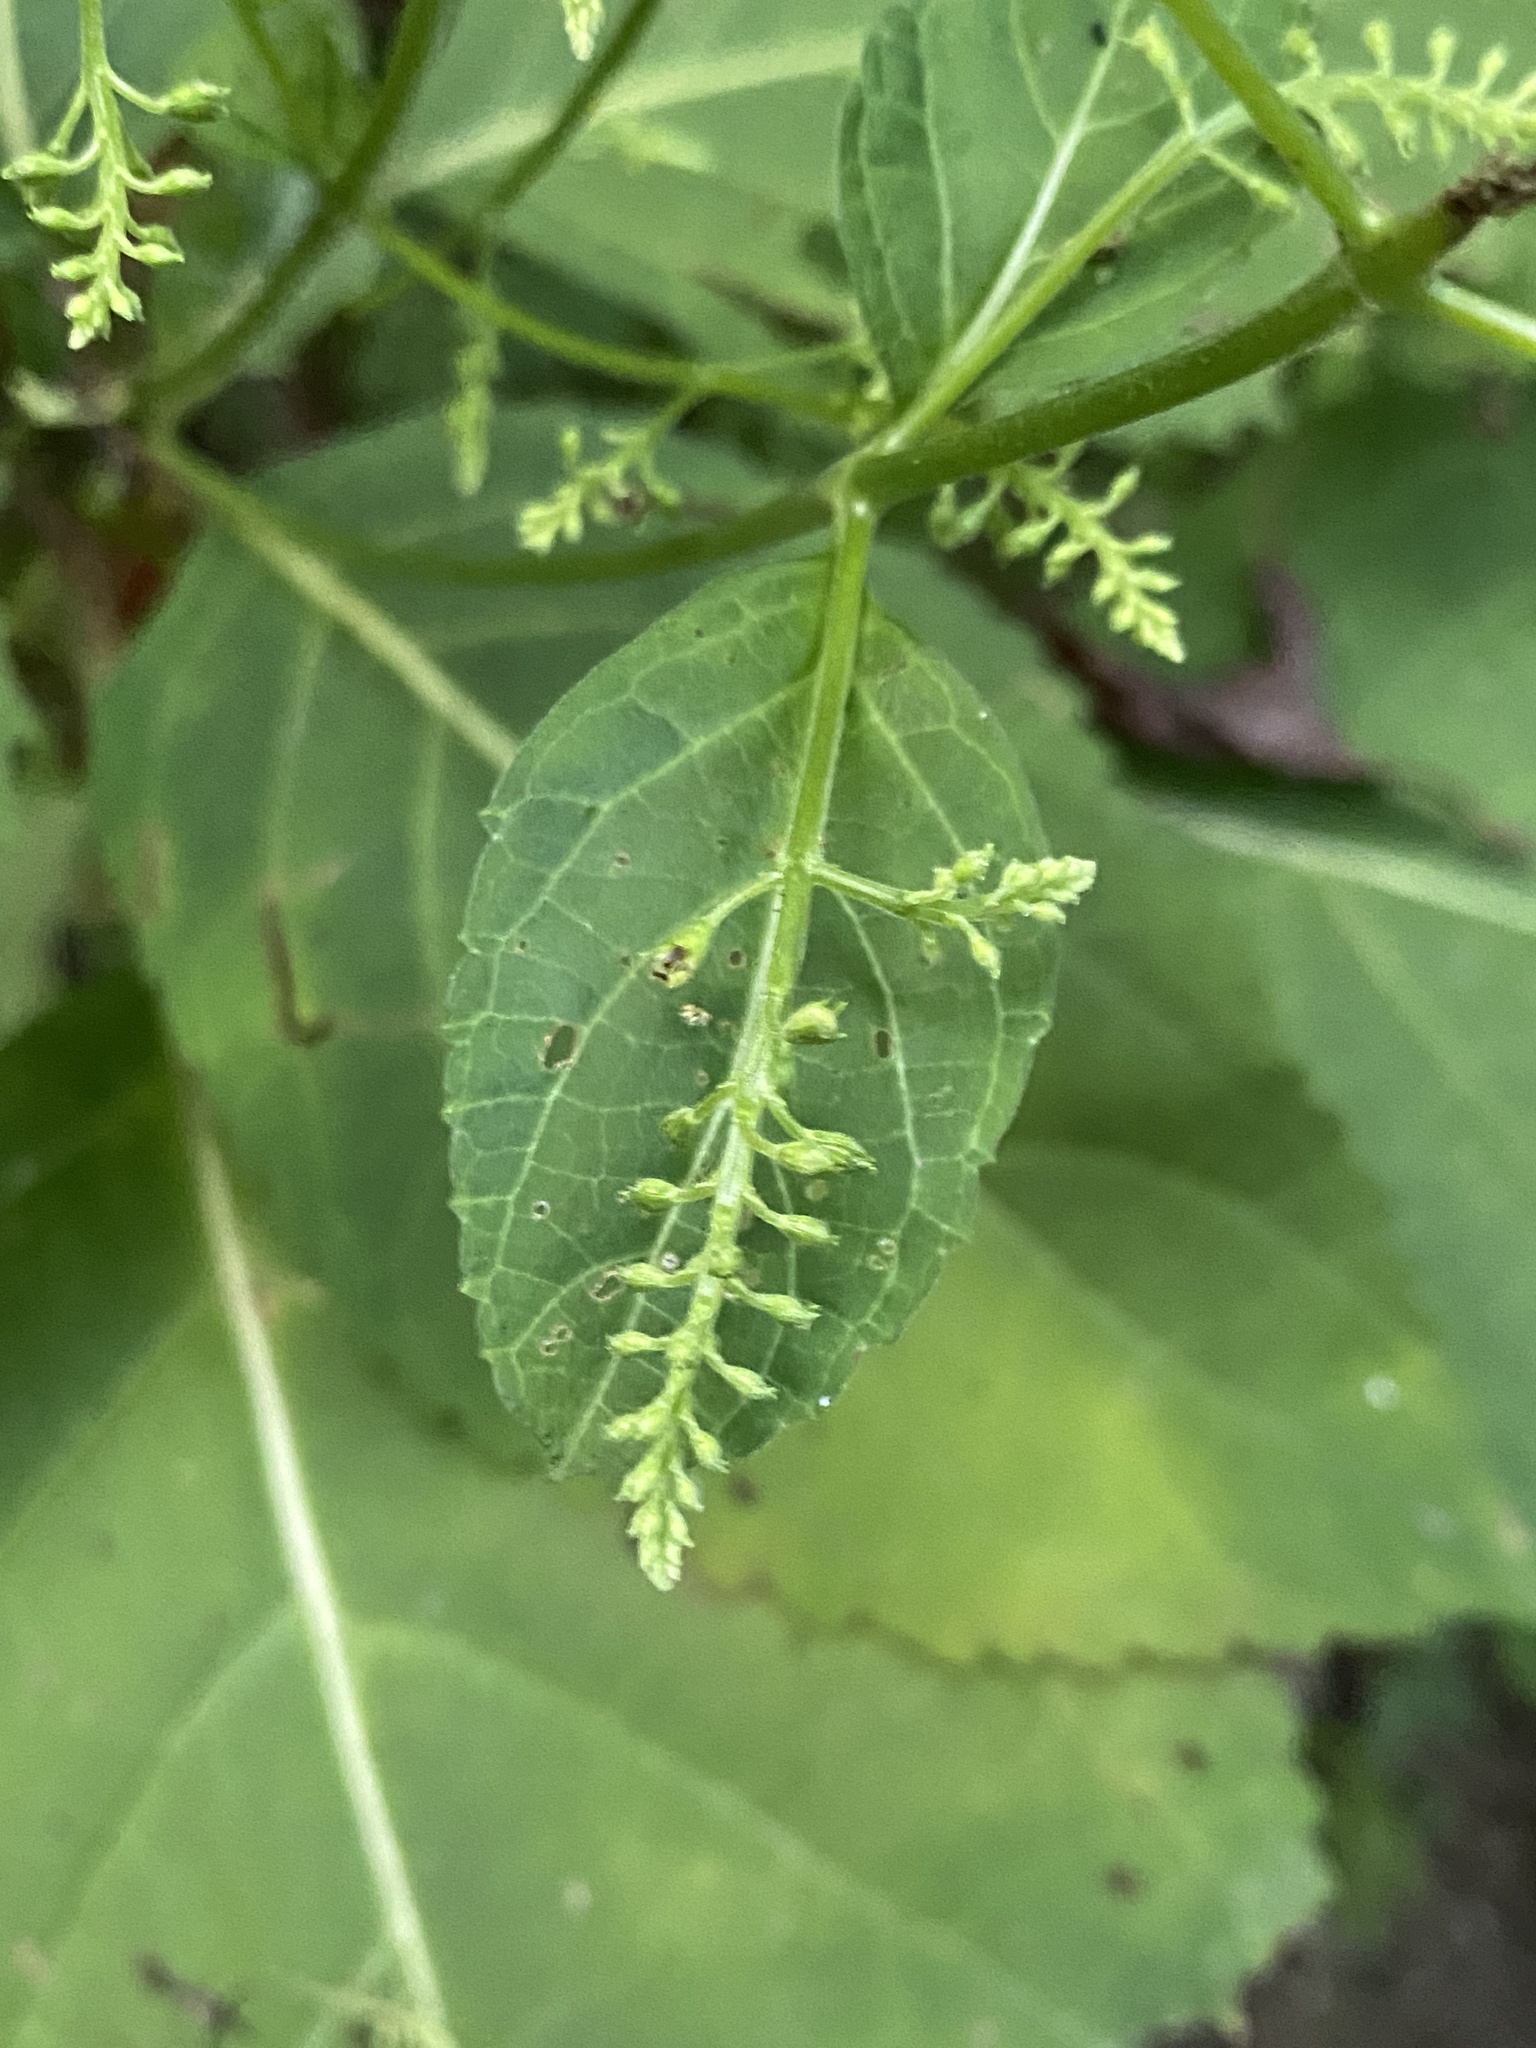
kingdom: Plantae
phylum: Tracheophyta
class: Magnoliopsida
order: Lamiales
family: Lamiaceae
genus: Collinsonia
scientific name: Collinsonia canadensis
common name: Northern horsebalm
